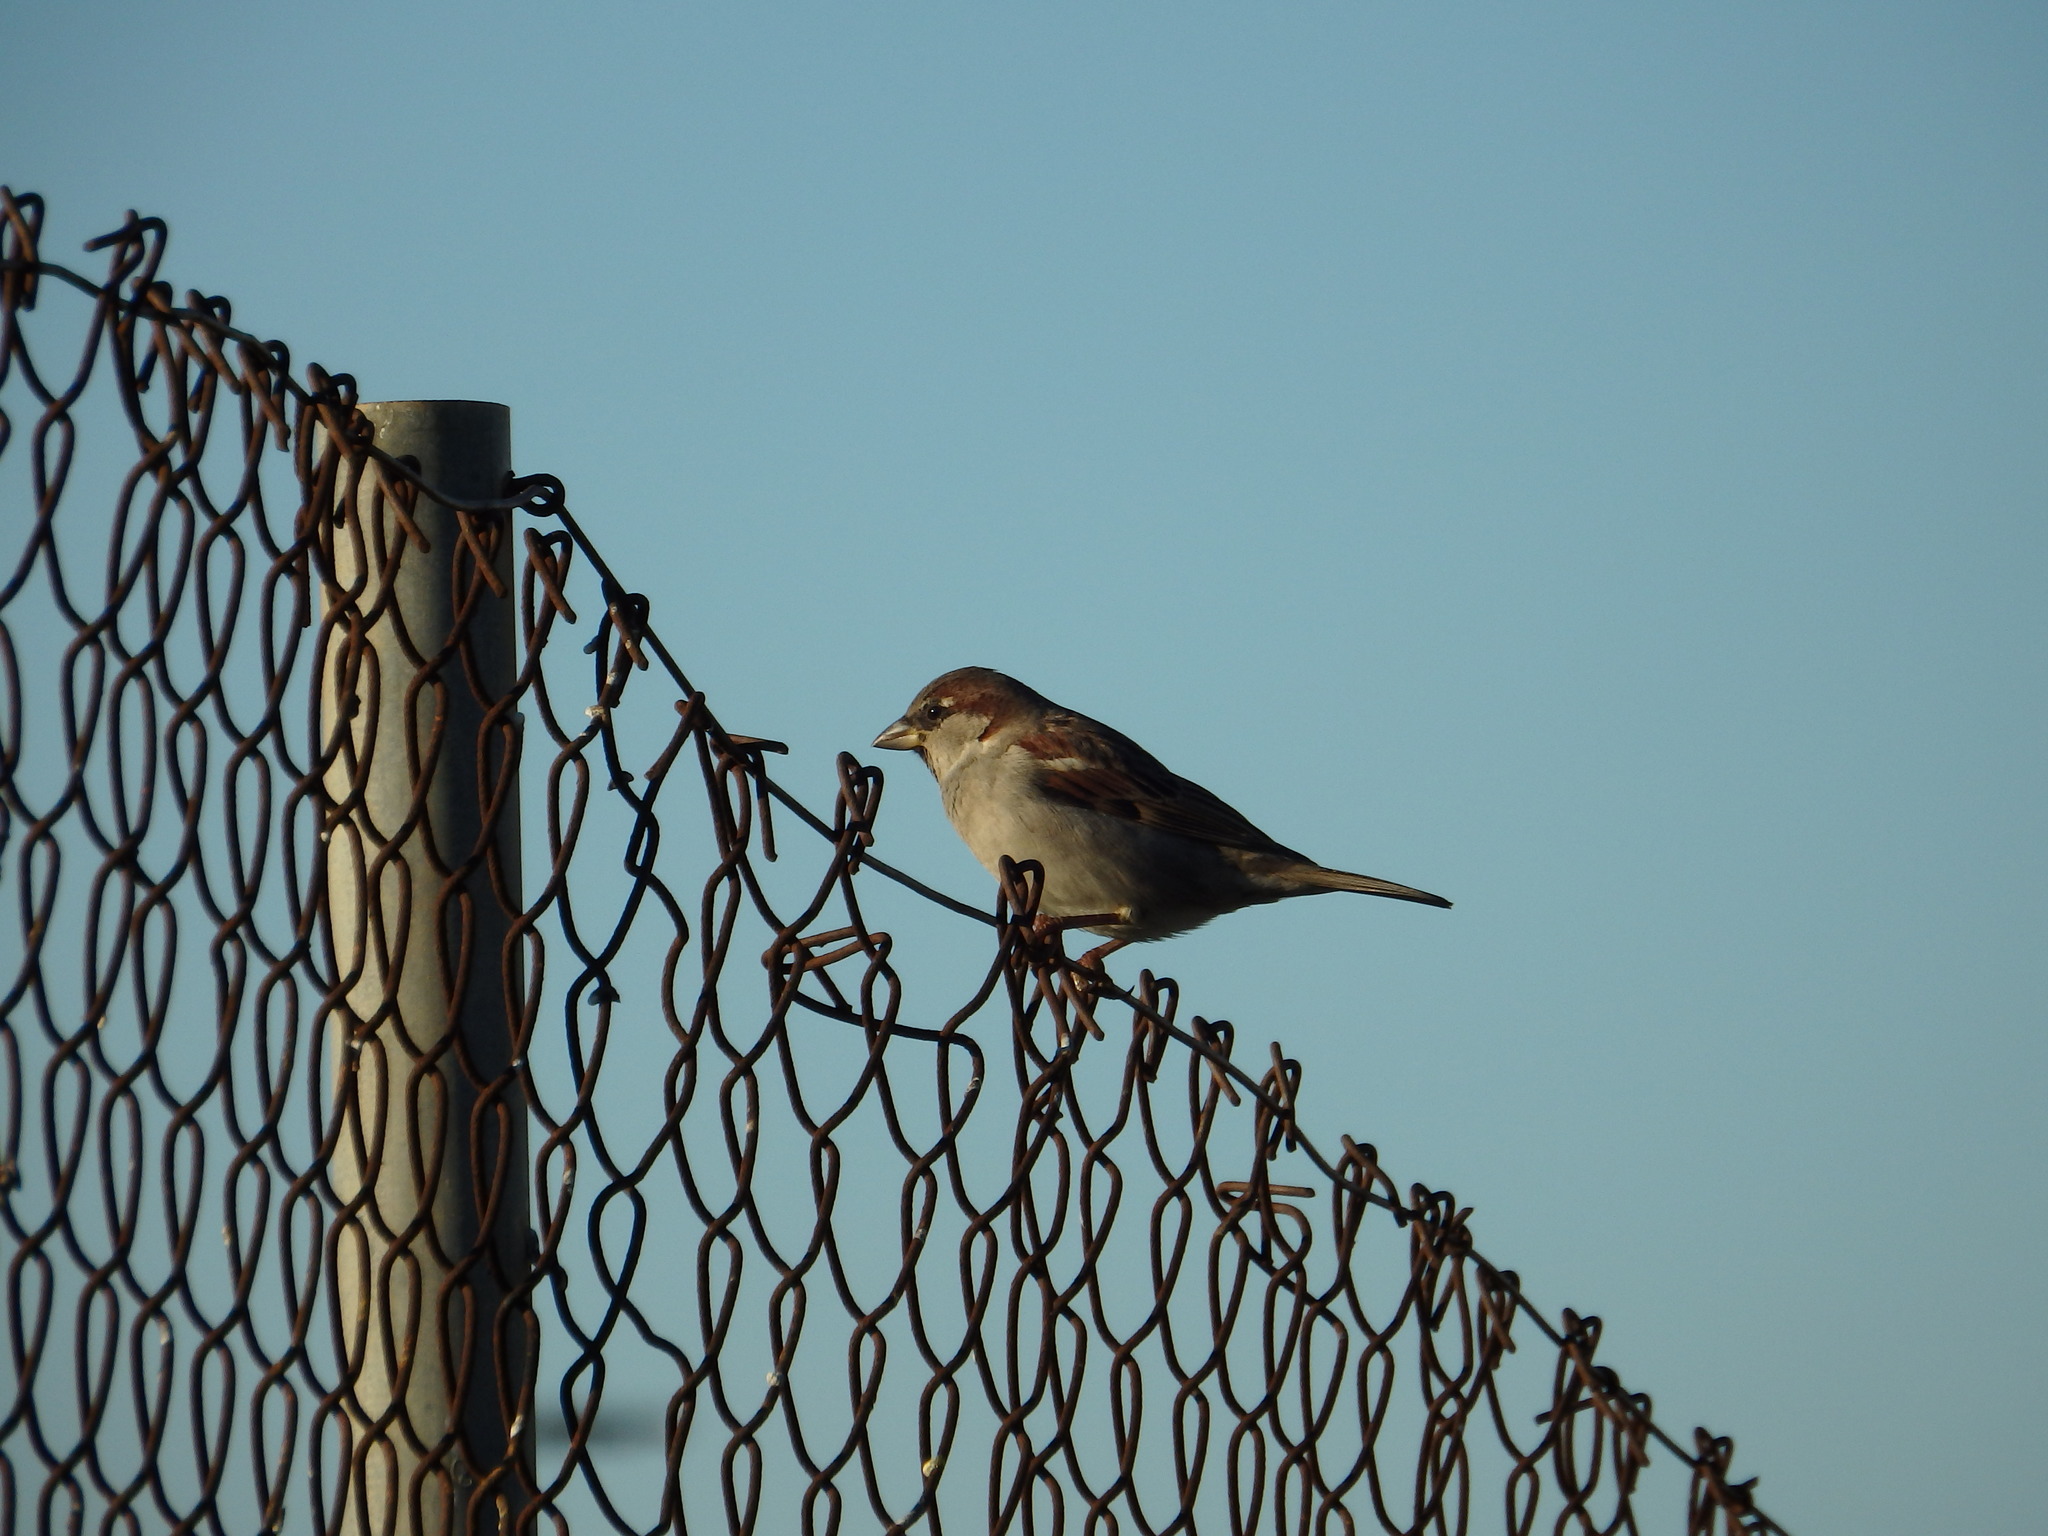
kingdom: Animalia
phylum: Chordata
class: Aves
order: Passeriformes
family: Passeridae
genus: Passer
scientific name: Passer domesticus
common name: House sparrow
